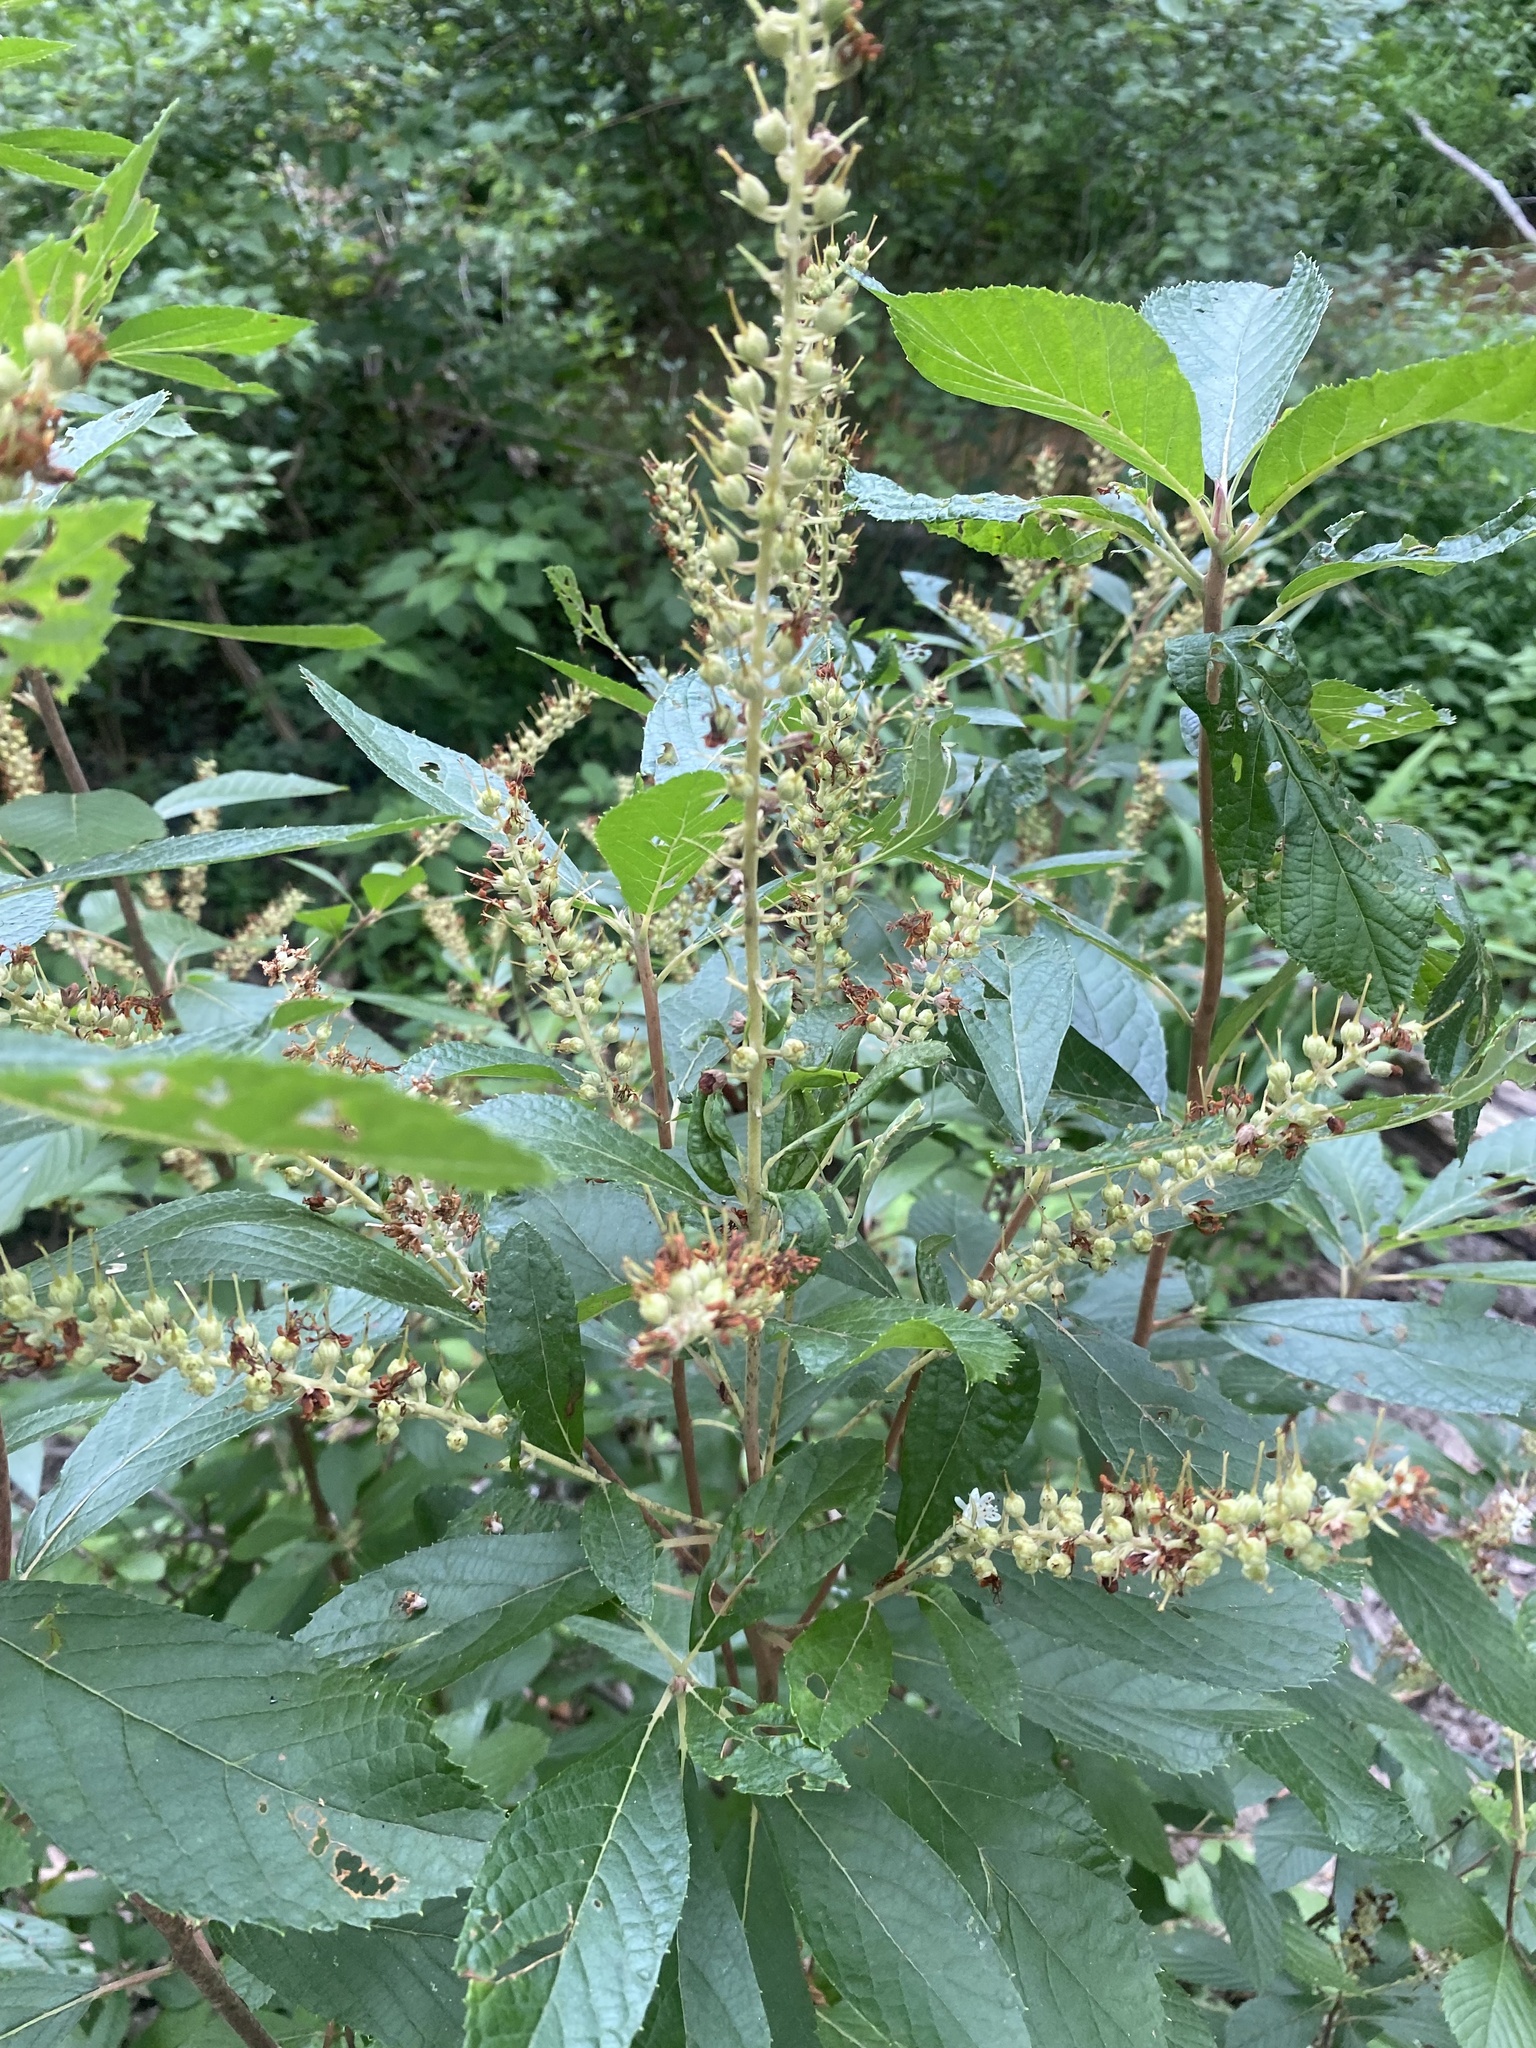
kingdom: Plantae
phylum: Tracheophyta
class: Magnoliopsida
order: Ericales
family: Clethraceae
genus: Clethra
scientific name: Clethra alnifolia
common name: Sweet pepperbush
